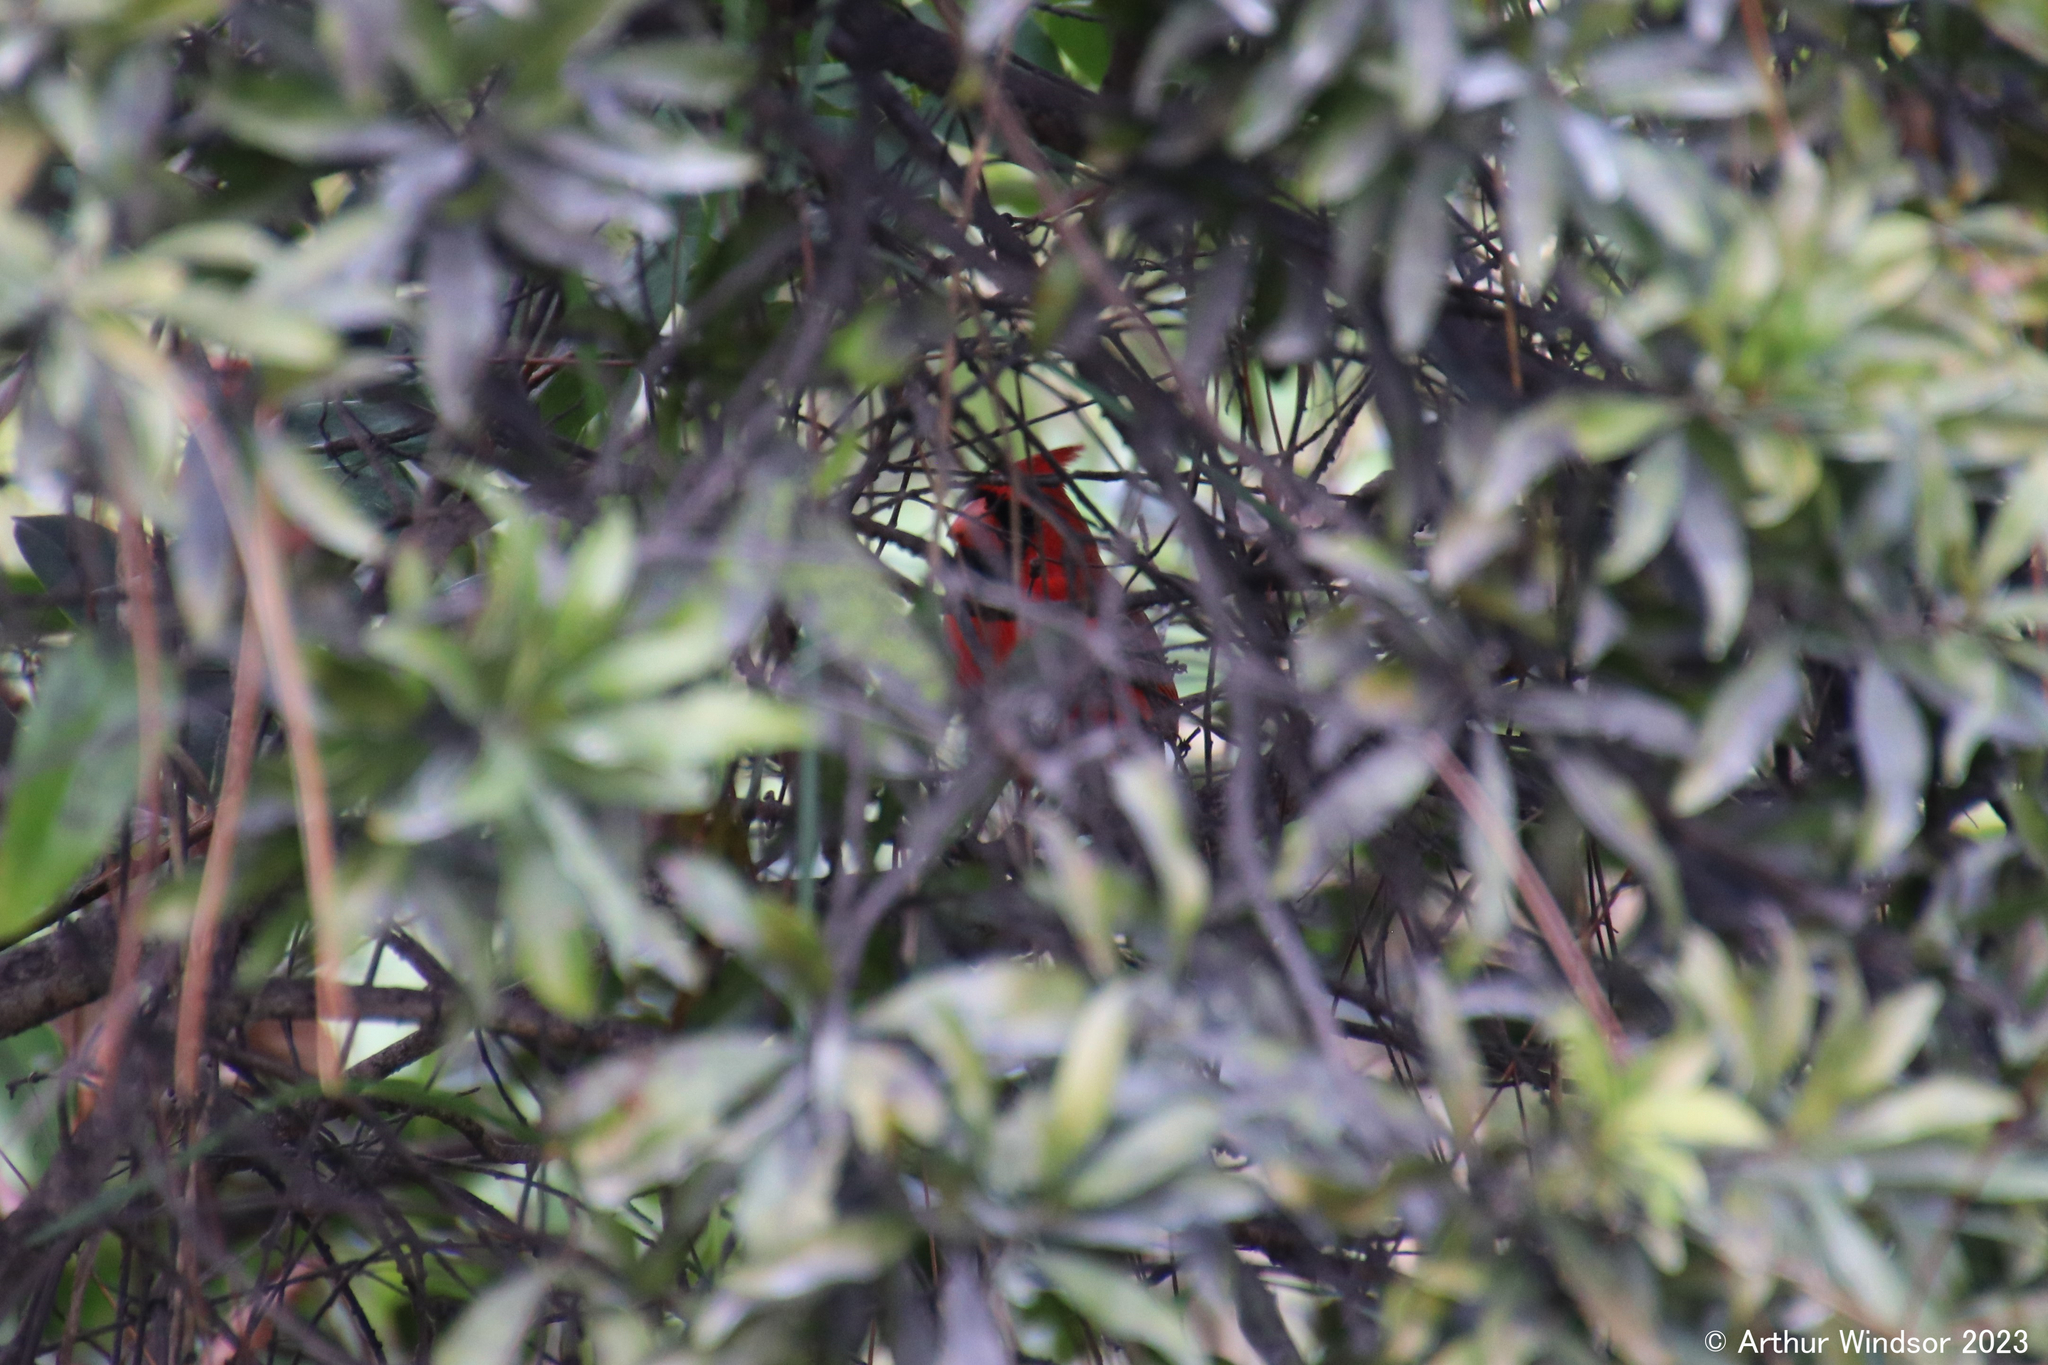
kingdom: Animalia
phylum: Chordata
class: Aves
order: Passeriformes
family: Cardinalidae
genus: Cardinalis
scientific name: Cardinalis cardinalis
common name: Northern cardinal
